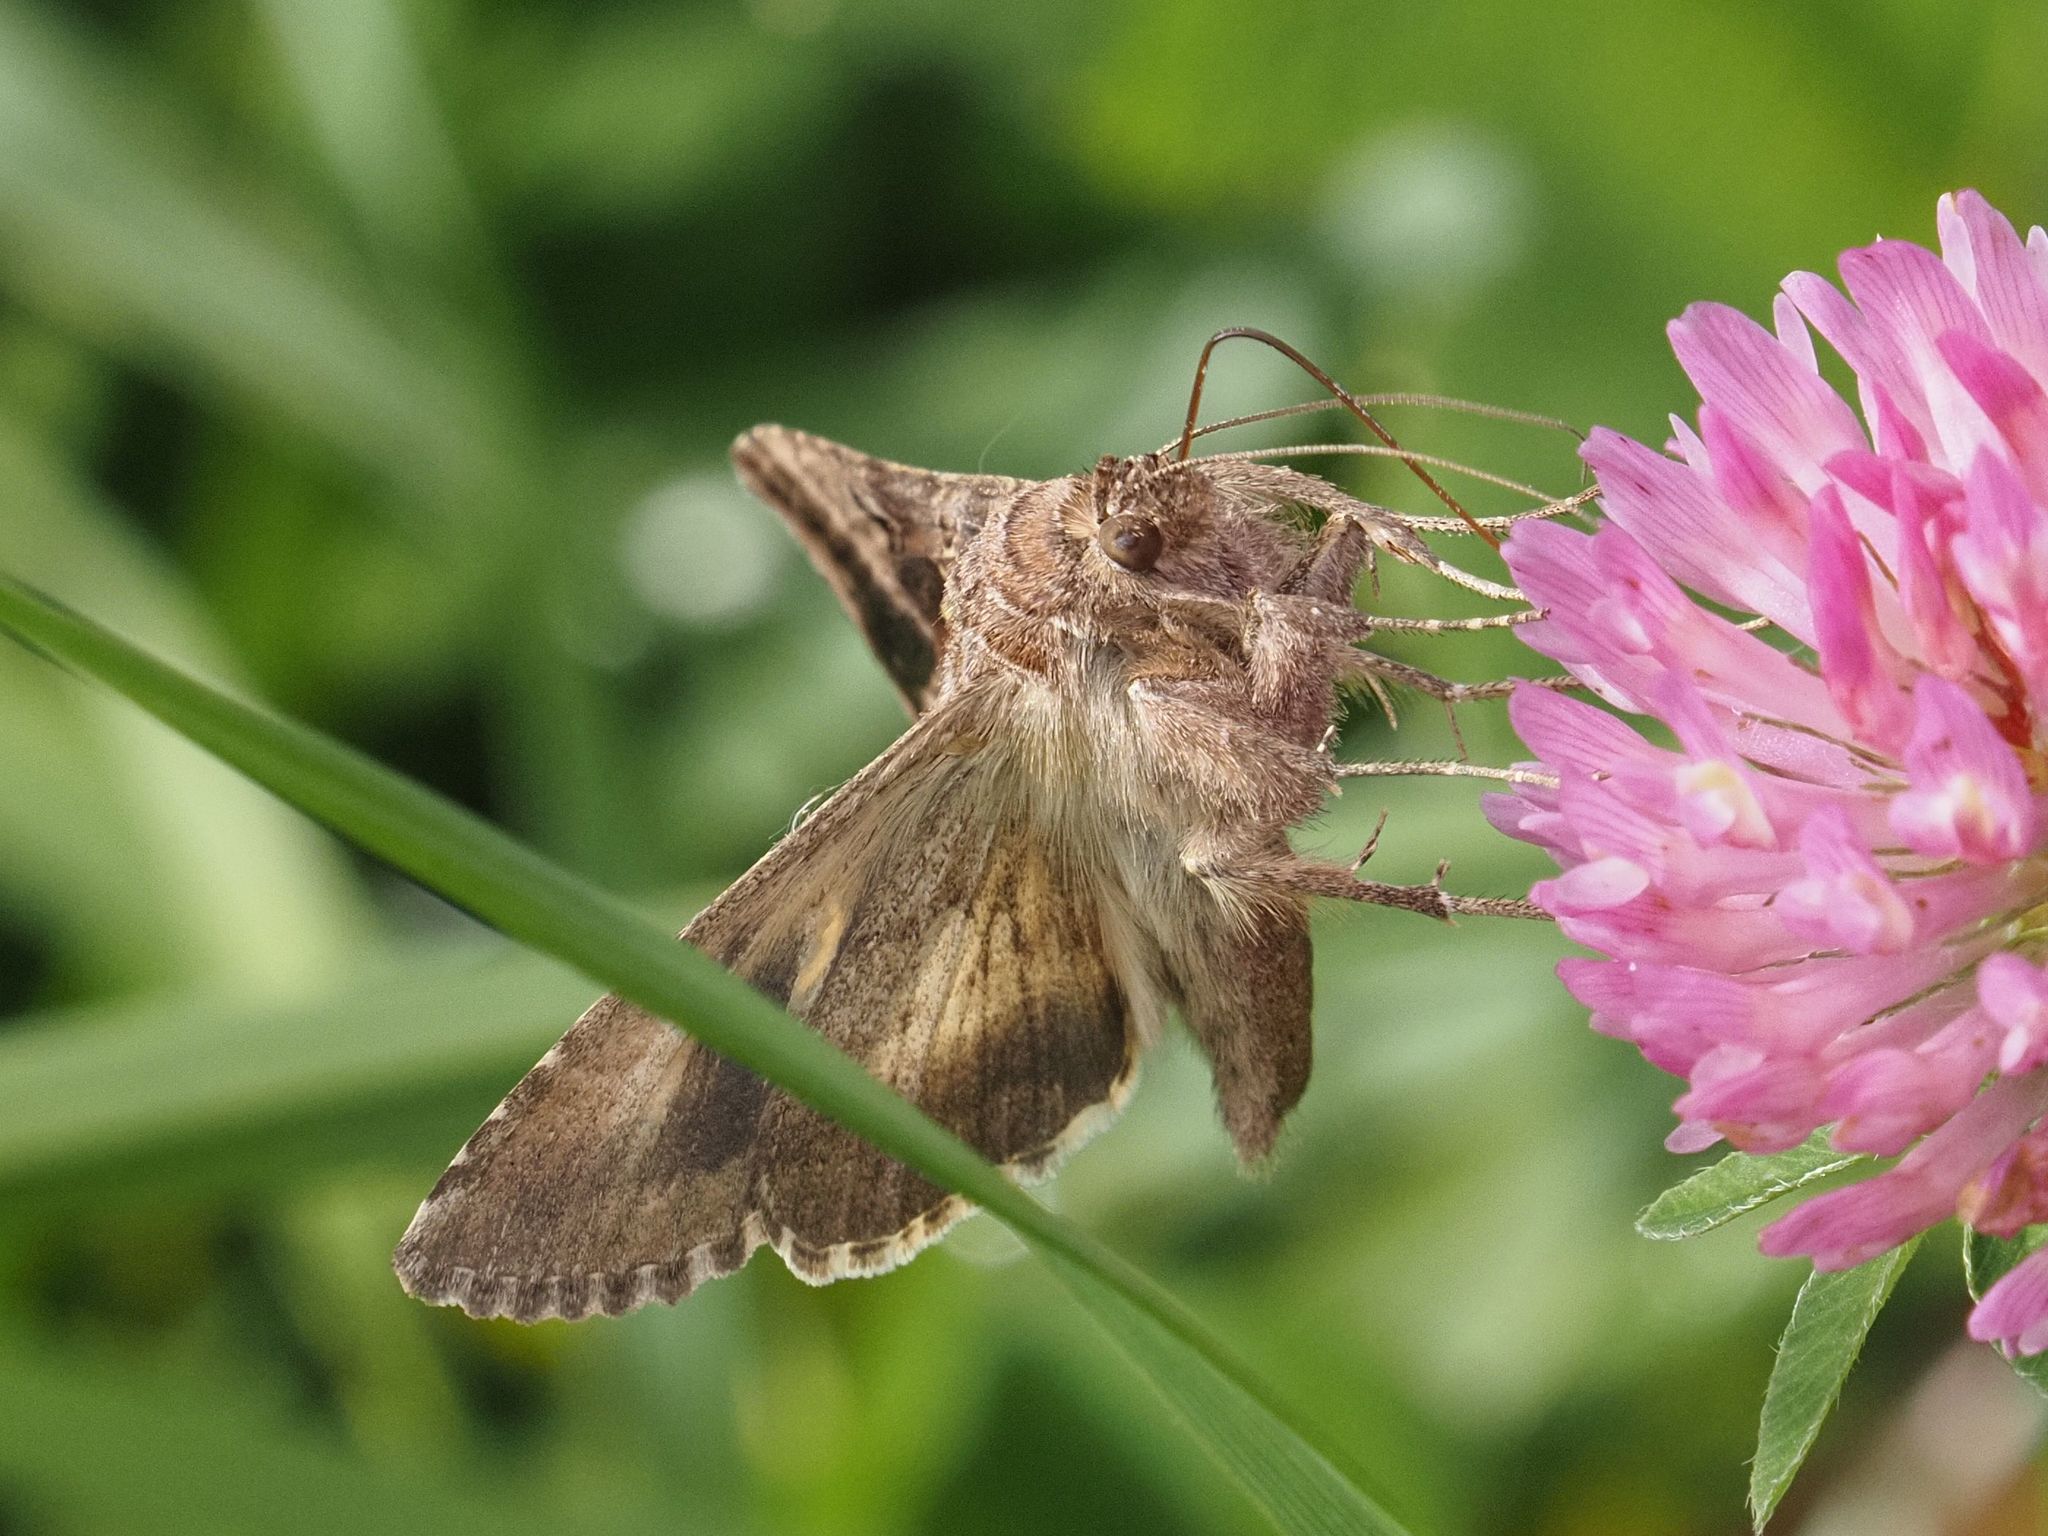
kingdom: Animalia
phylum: Arthropoda
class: Insecta
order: Lepidoptera
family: Noctuidae
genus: Autographa
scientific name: Autographa gamma
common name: Silver y
